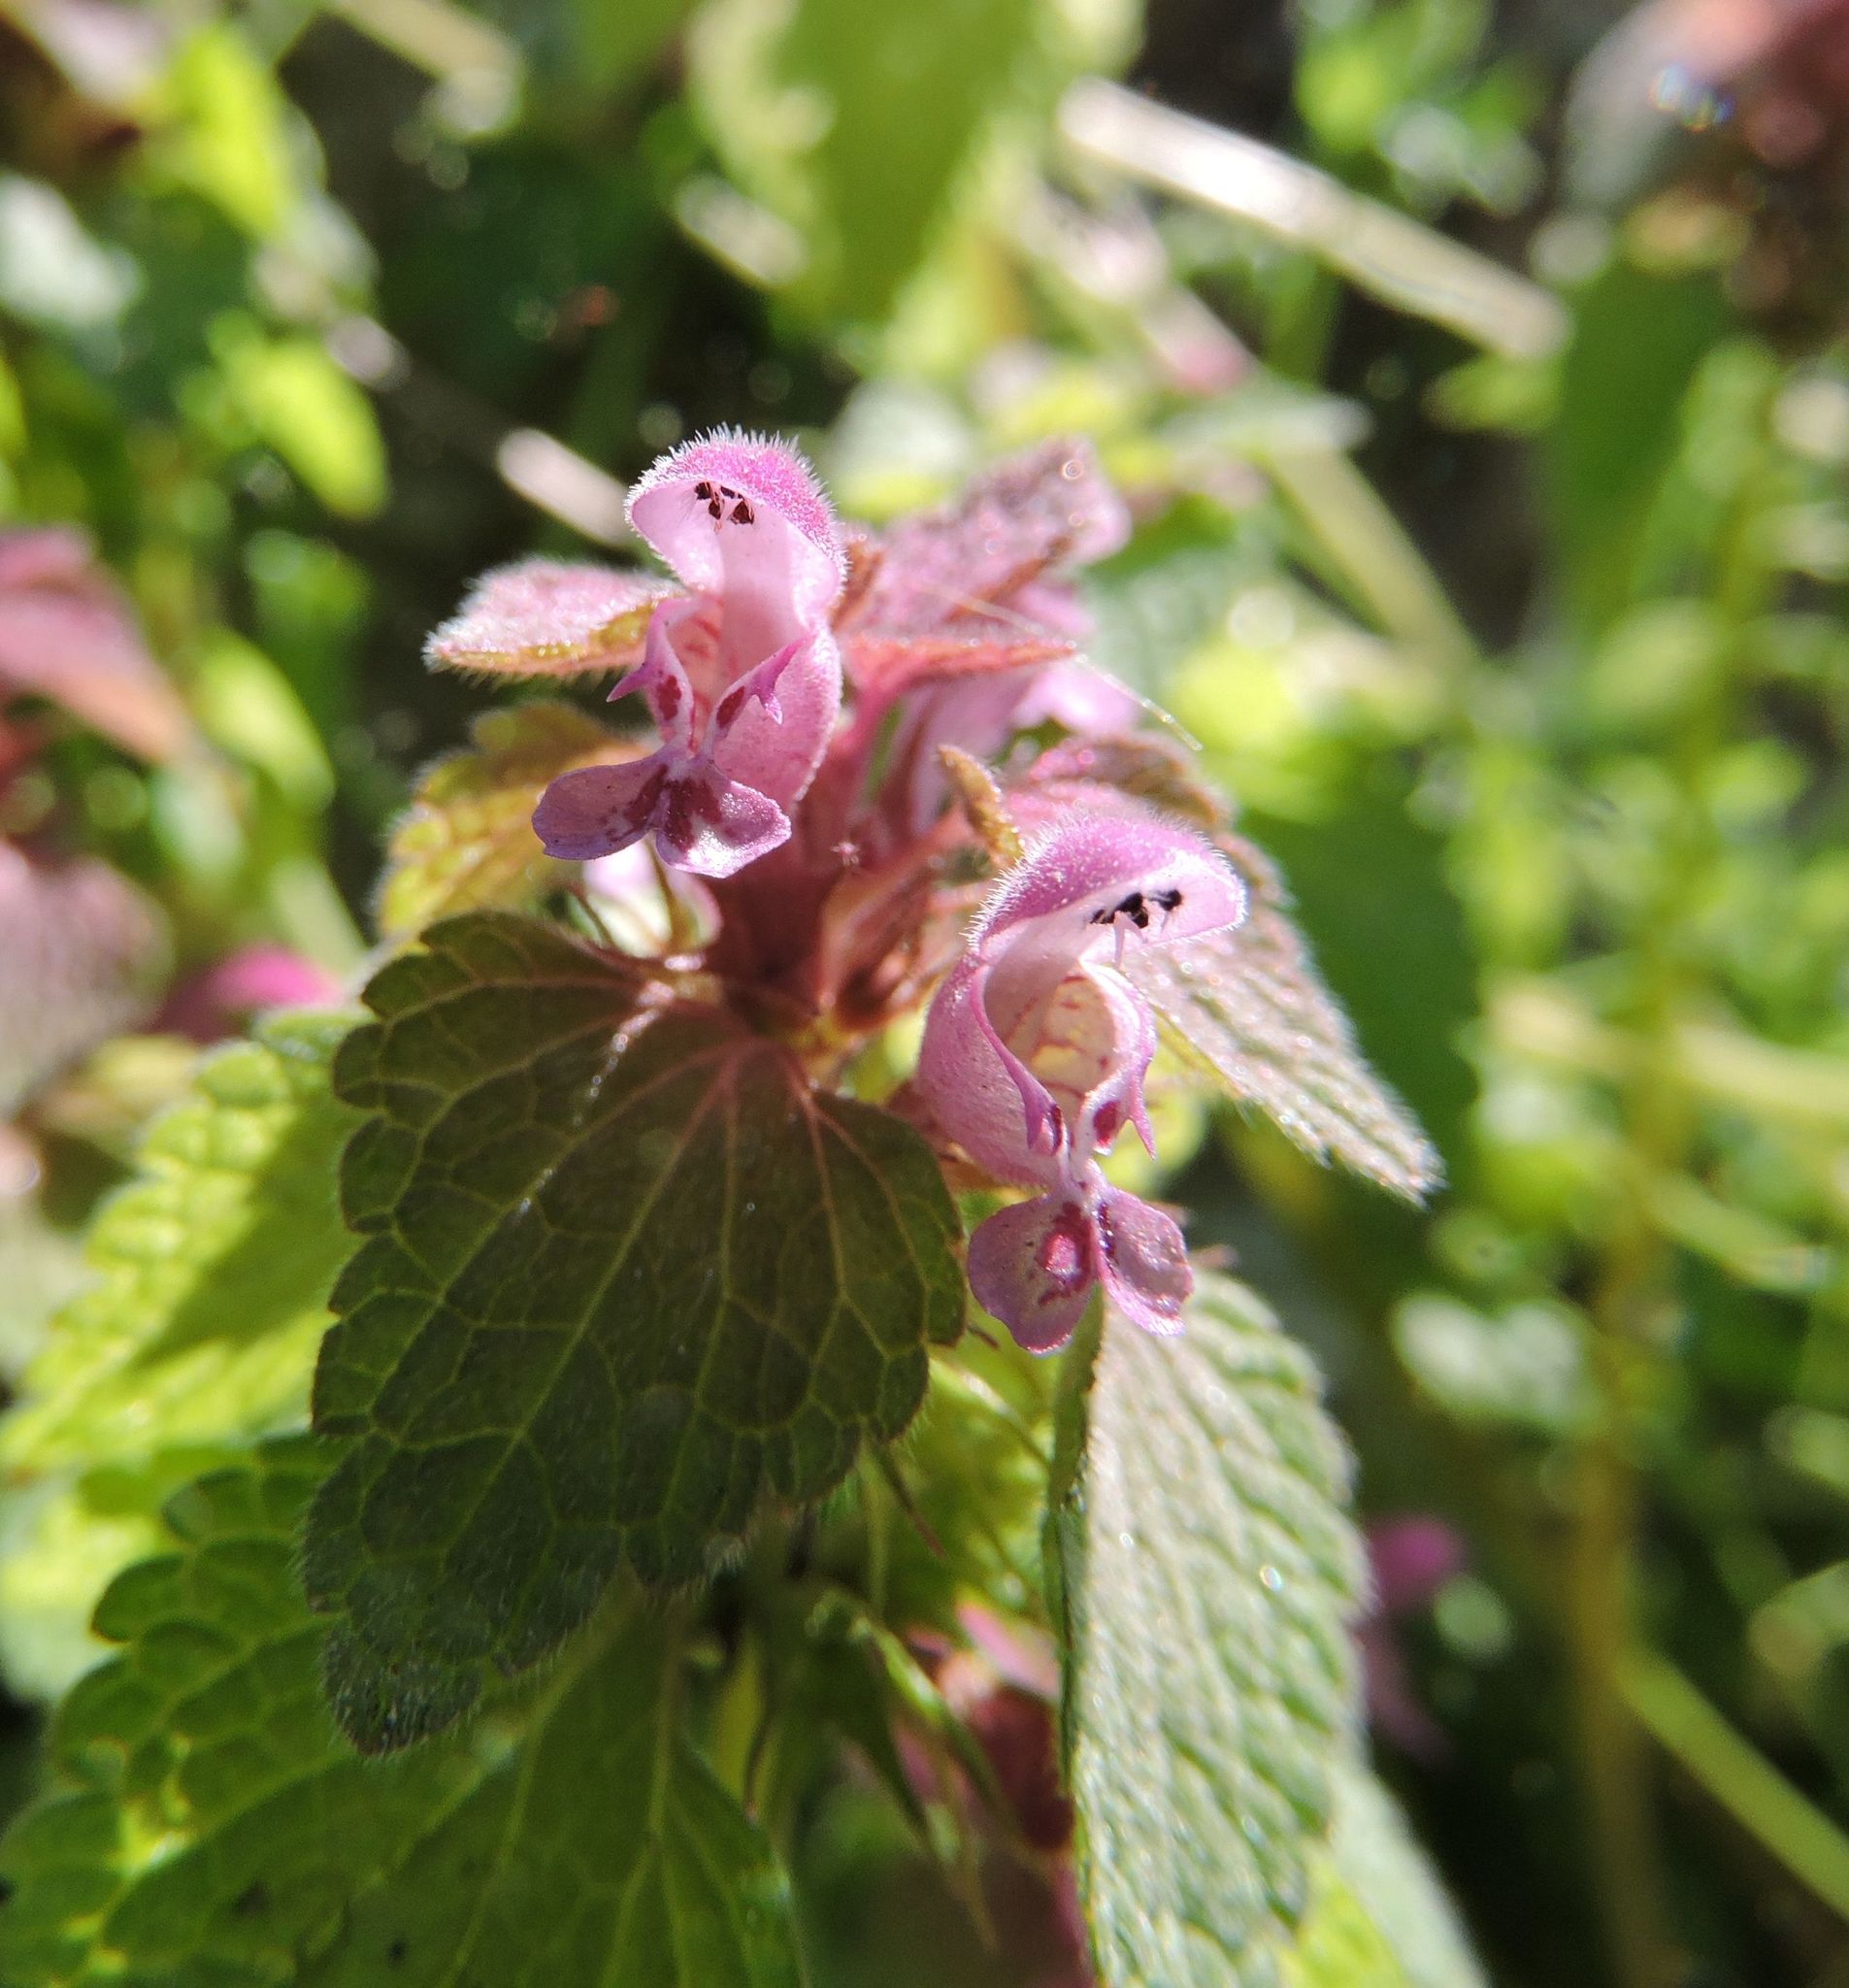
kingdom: Plantae
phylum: Tracheophyta
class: Magnoliopsida
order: Lamiales
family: Lamiaceae
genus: Lamium
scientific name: Lamium purpureum
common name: Red dead-nettle
